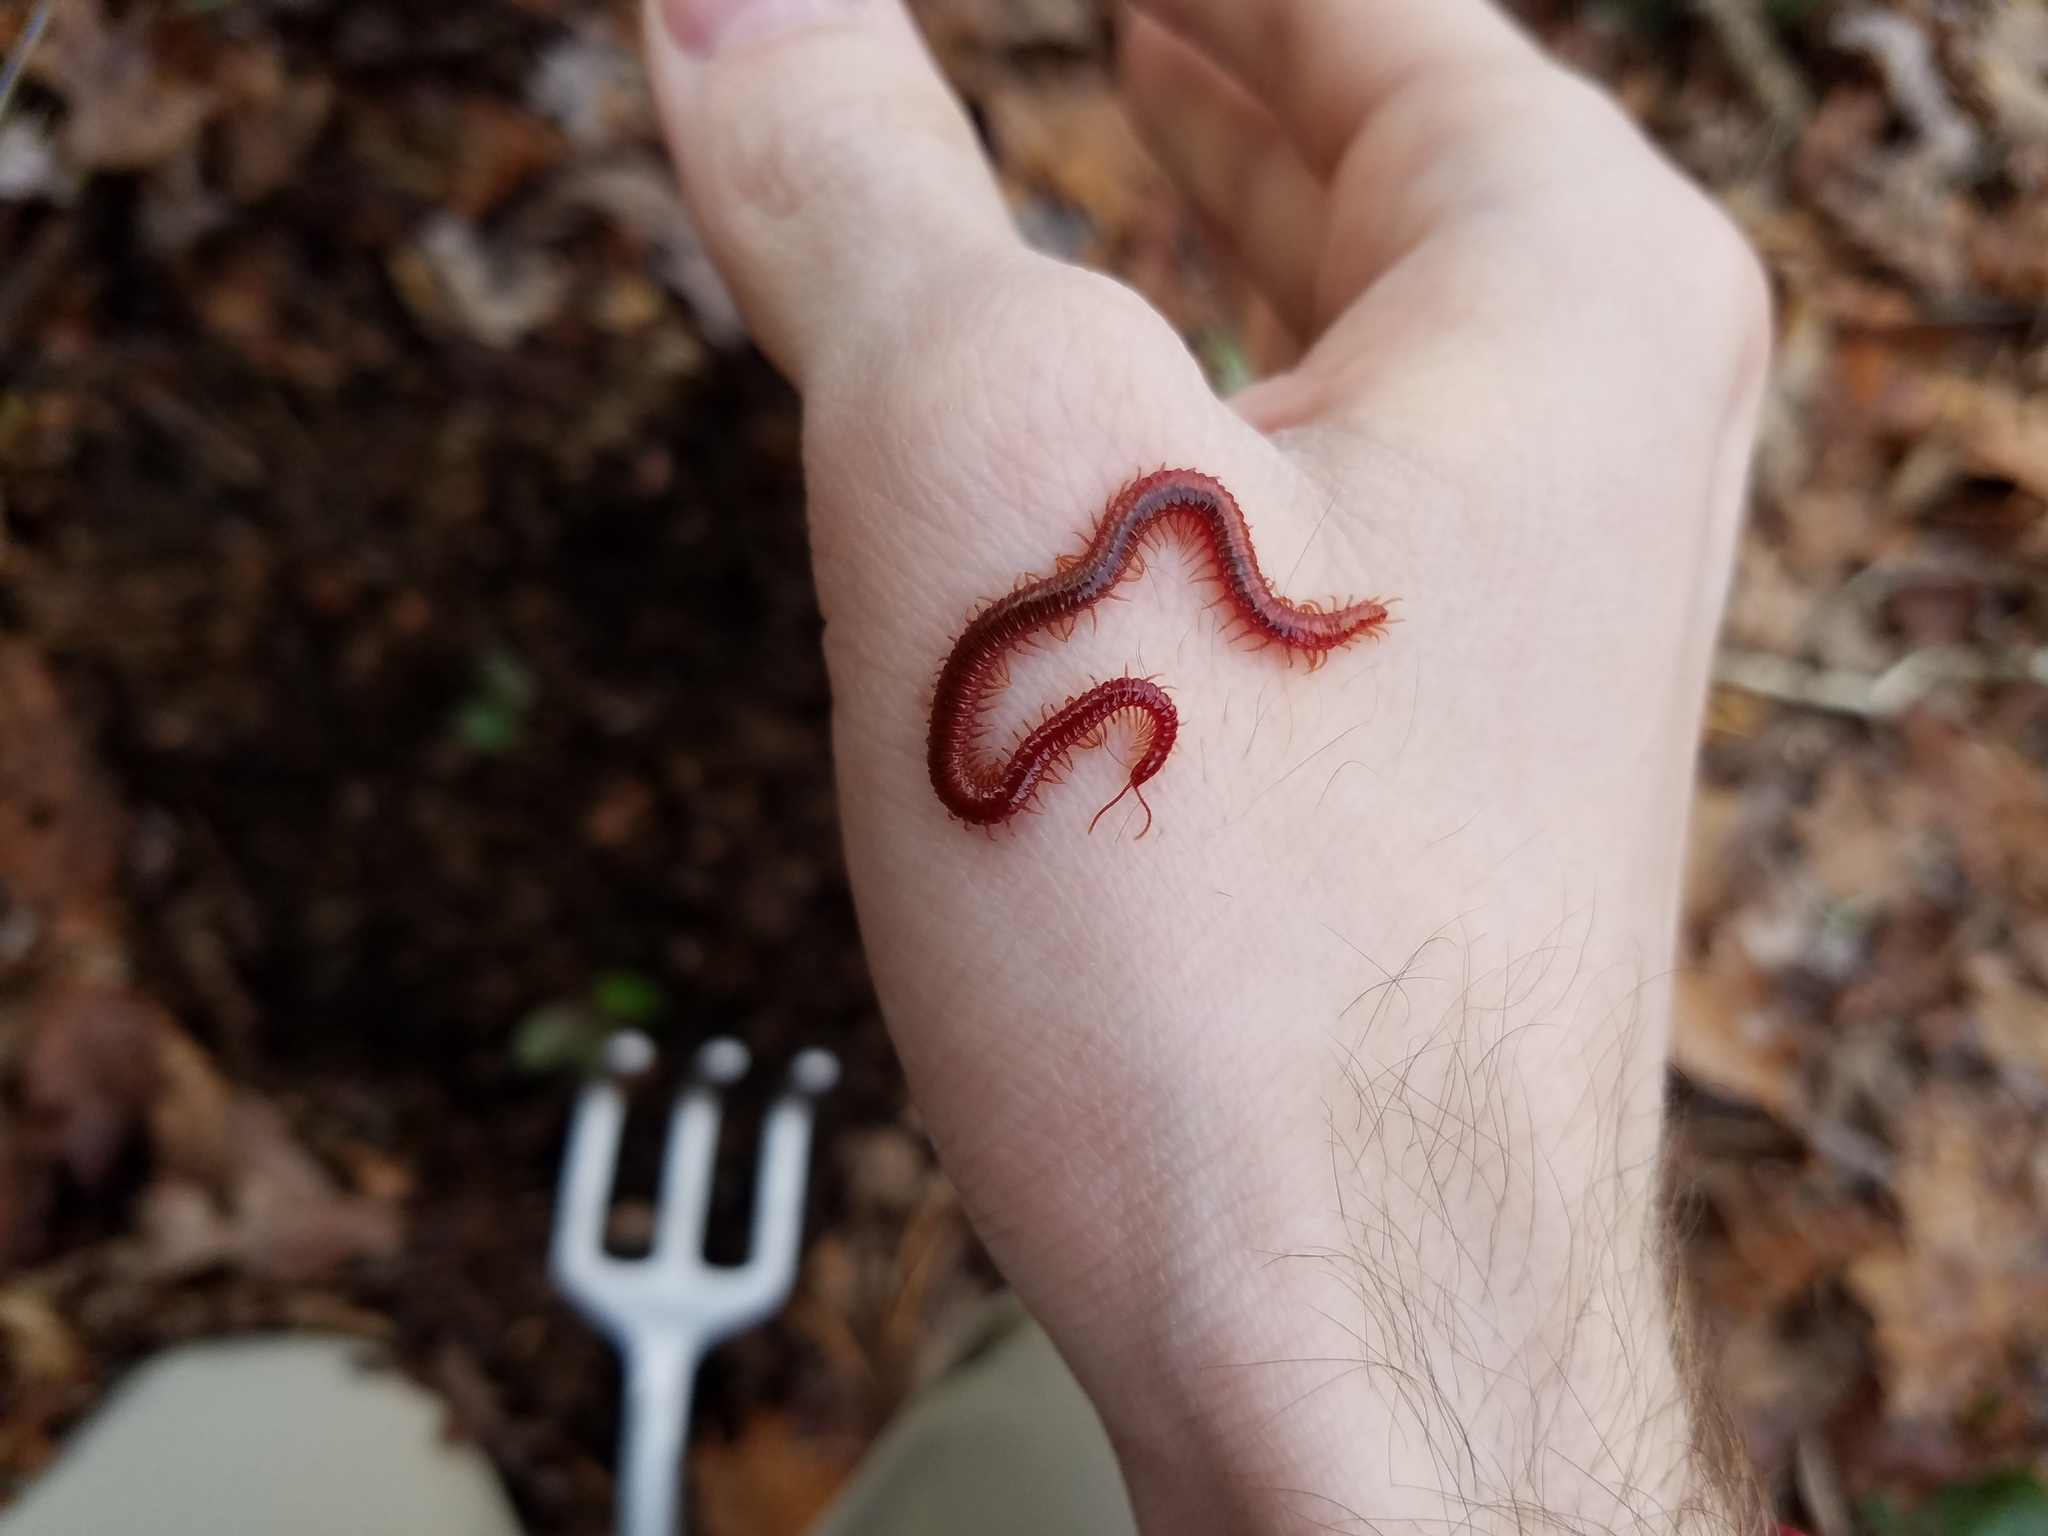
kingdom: Animalia
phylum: Arthropoda
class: Chilopoda
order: Geophilomorpha
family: Linotaeniidae
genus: Strigamia
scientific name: Strigamia bidens
